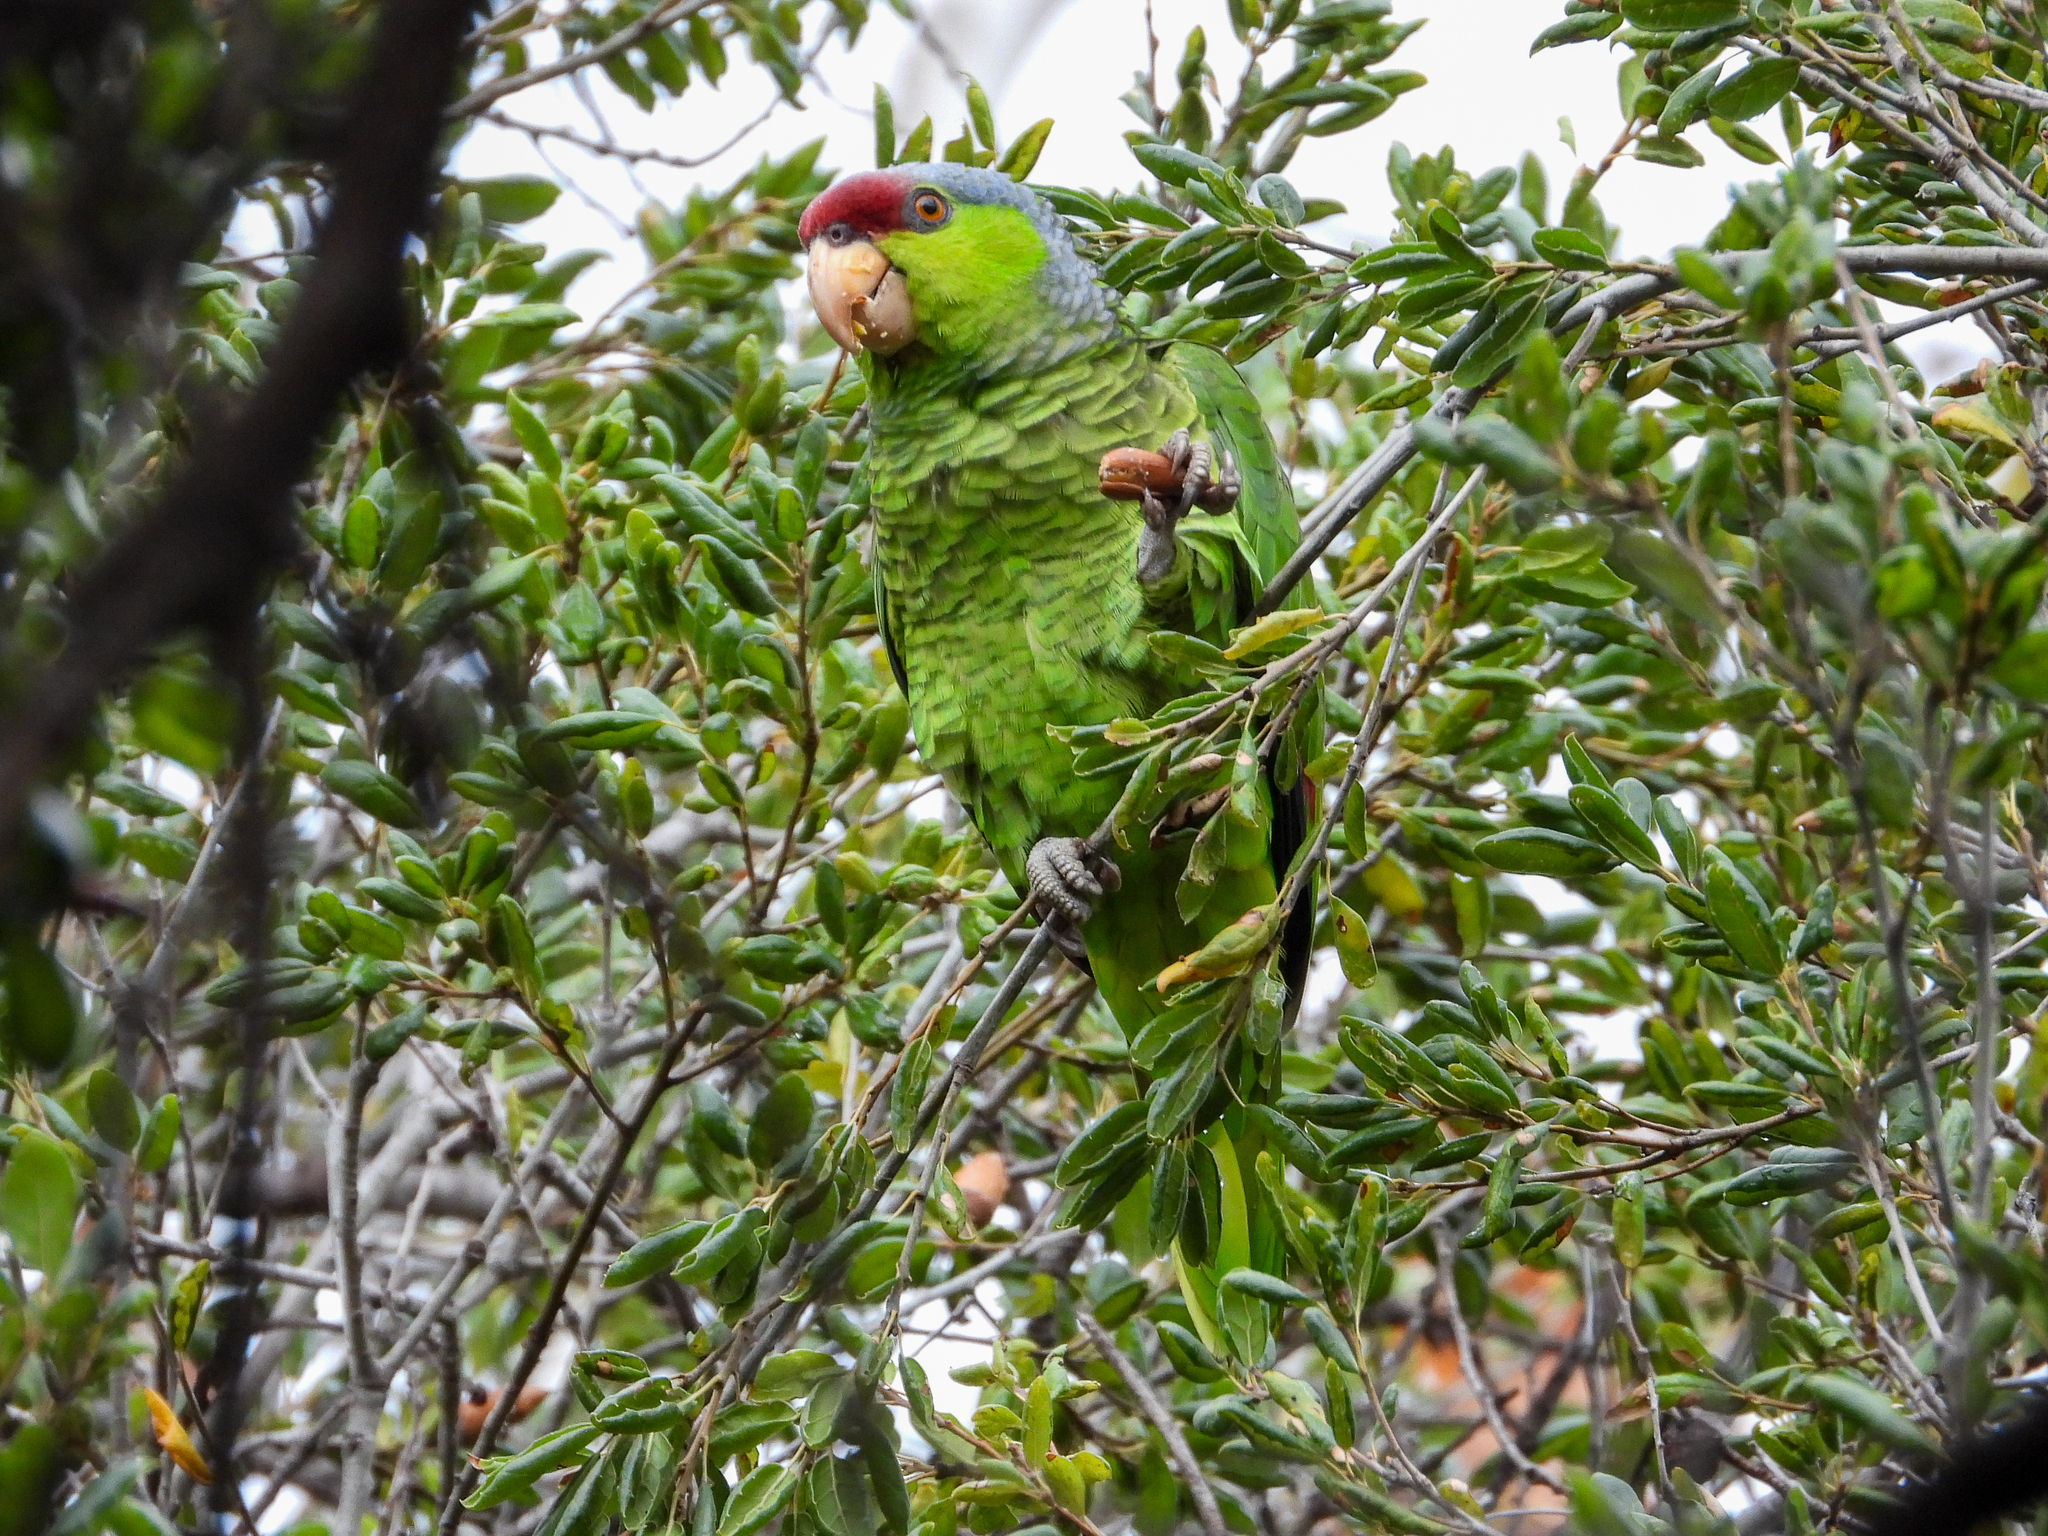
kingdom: Animalia
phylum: Chordata
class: Aves
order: Psittaciformes
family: Psittacidae
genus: Amazona
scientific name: Amazona finschi
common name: Lilac-crowned amazon
